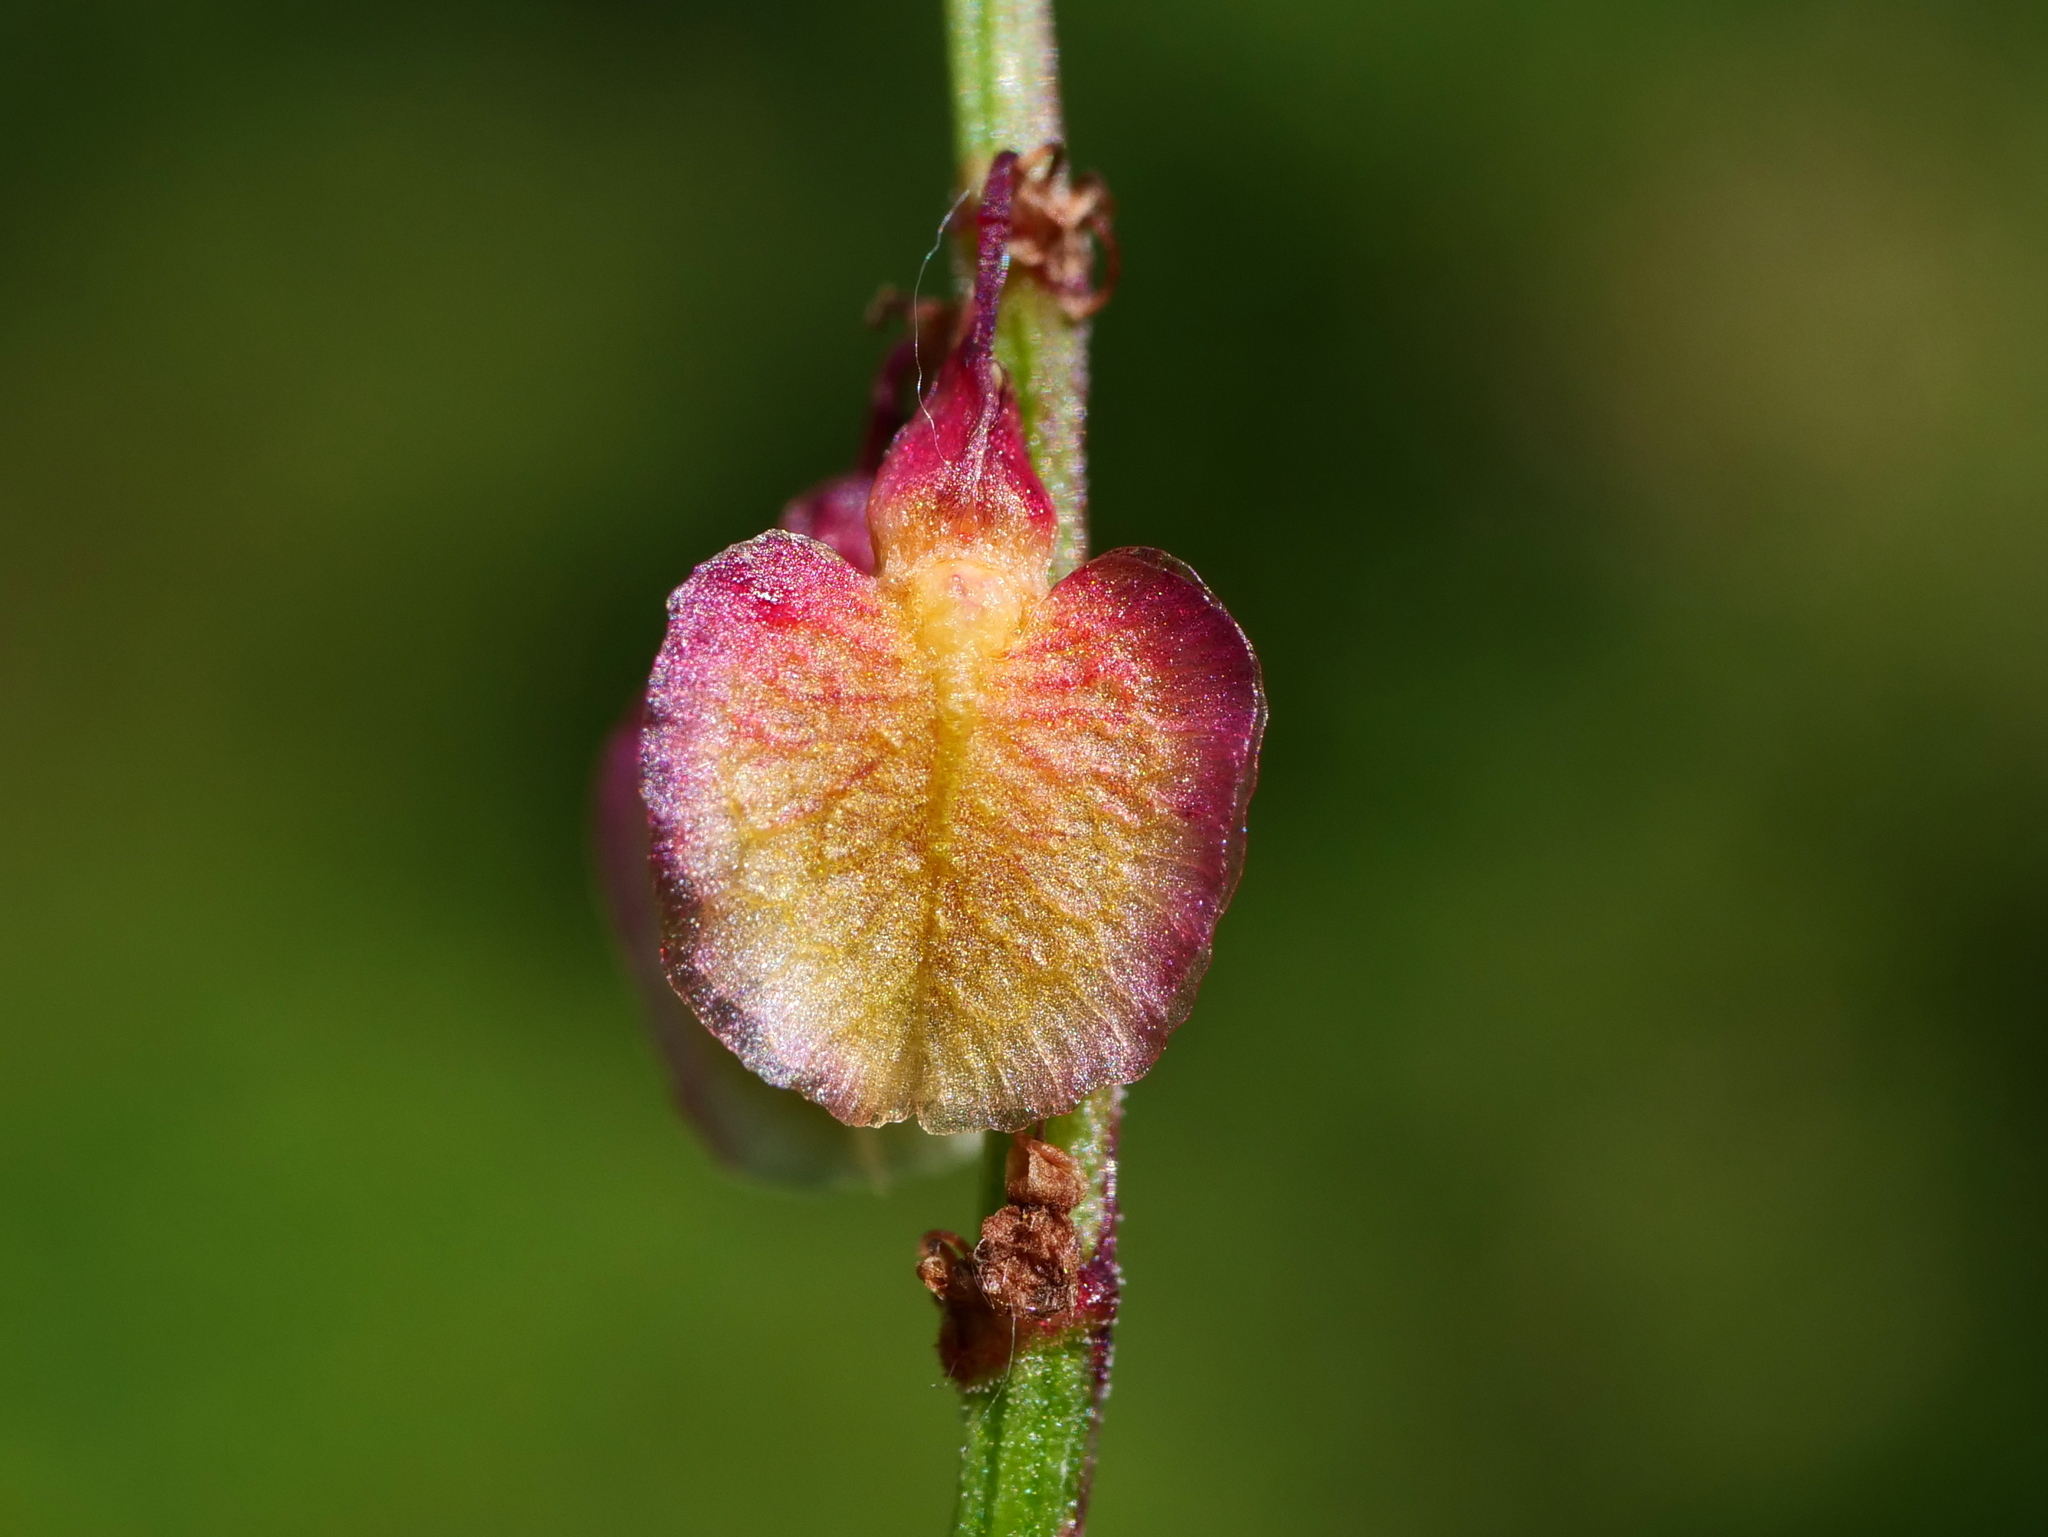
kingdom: Plantae
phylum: Tracheophyta
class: Magnoliopsida
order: Caryophyllales
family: Polygonaceae
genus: Rumex
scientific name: Rumex arifolius
